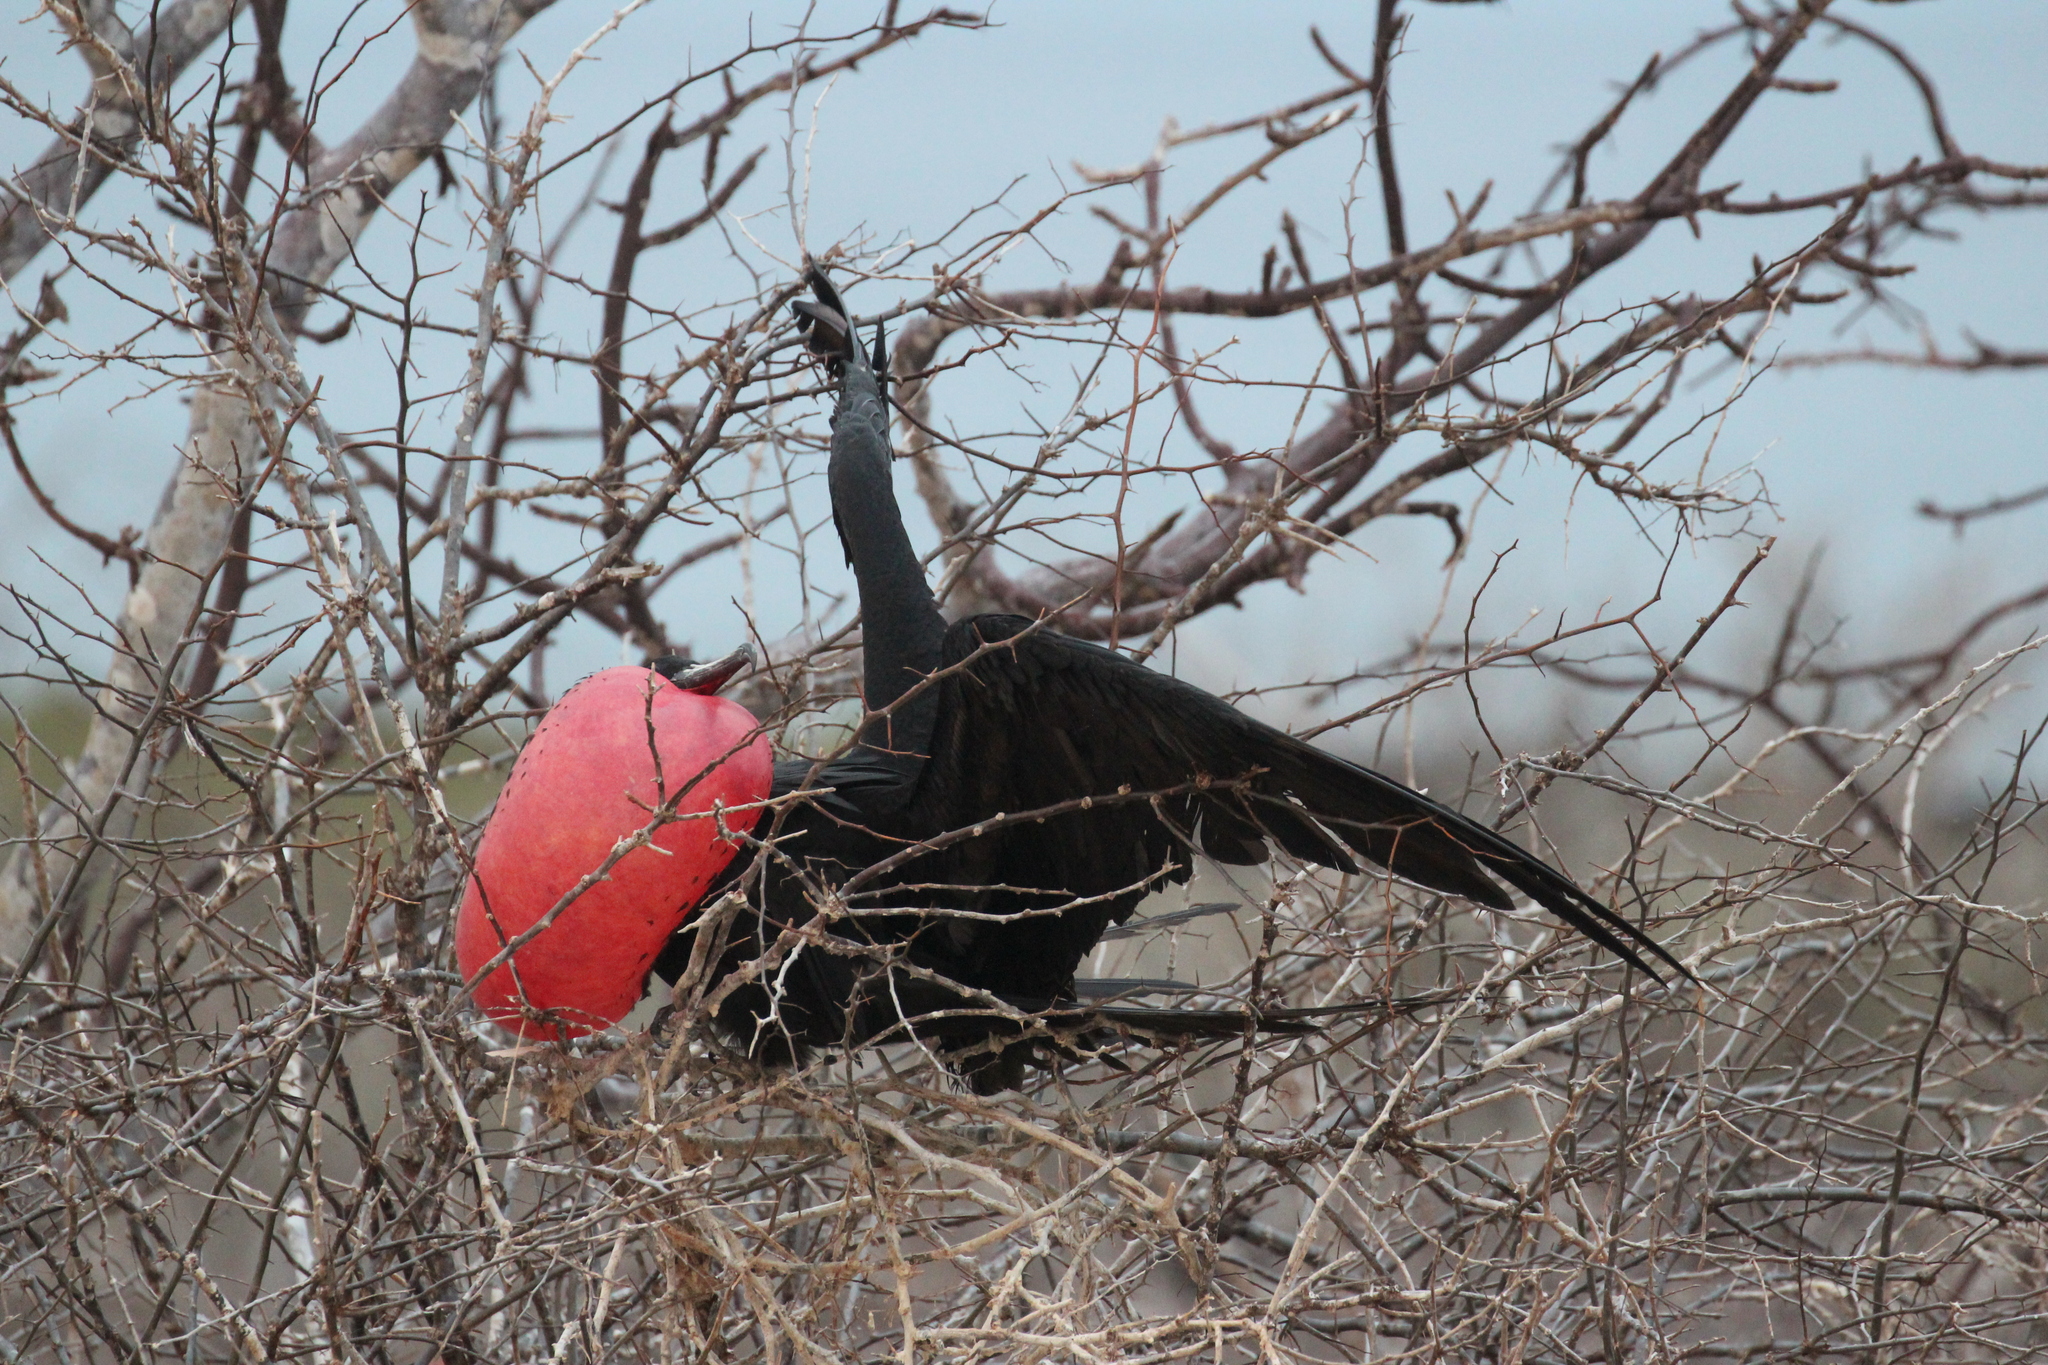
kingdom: Animalia
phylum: Chordata
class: Aves
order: Suliformes
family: Fregatidae
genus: Fregata
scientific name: Fregata magnificens
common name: Magnificent frigatebird
